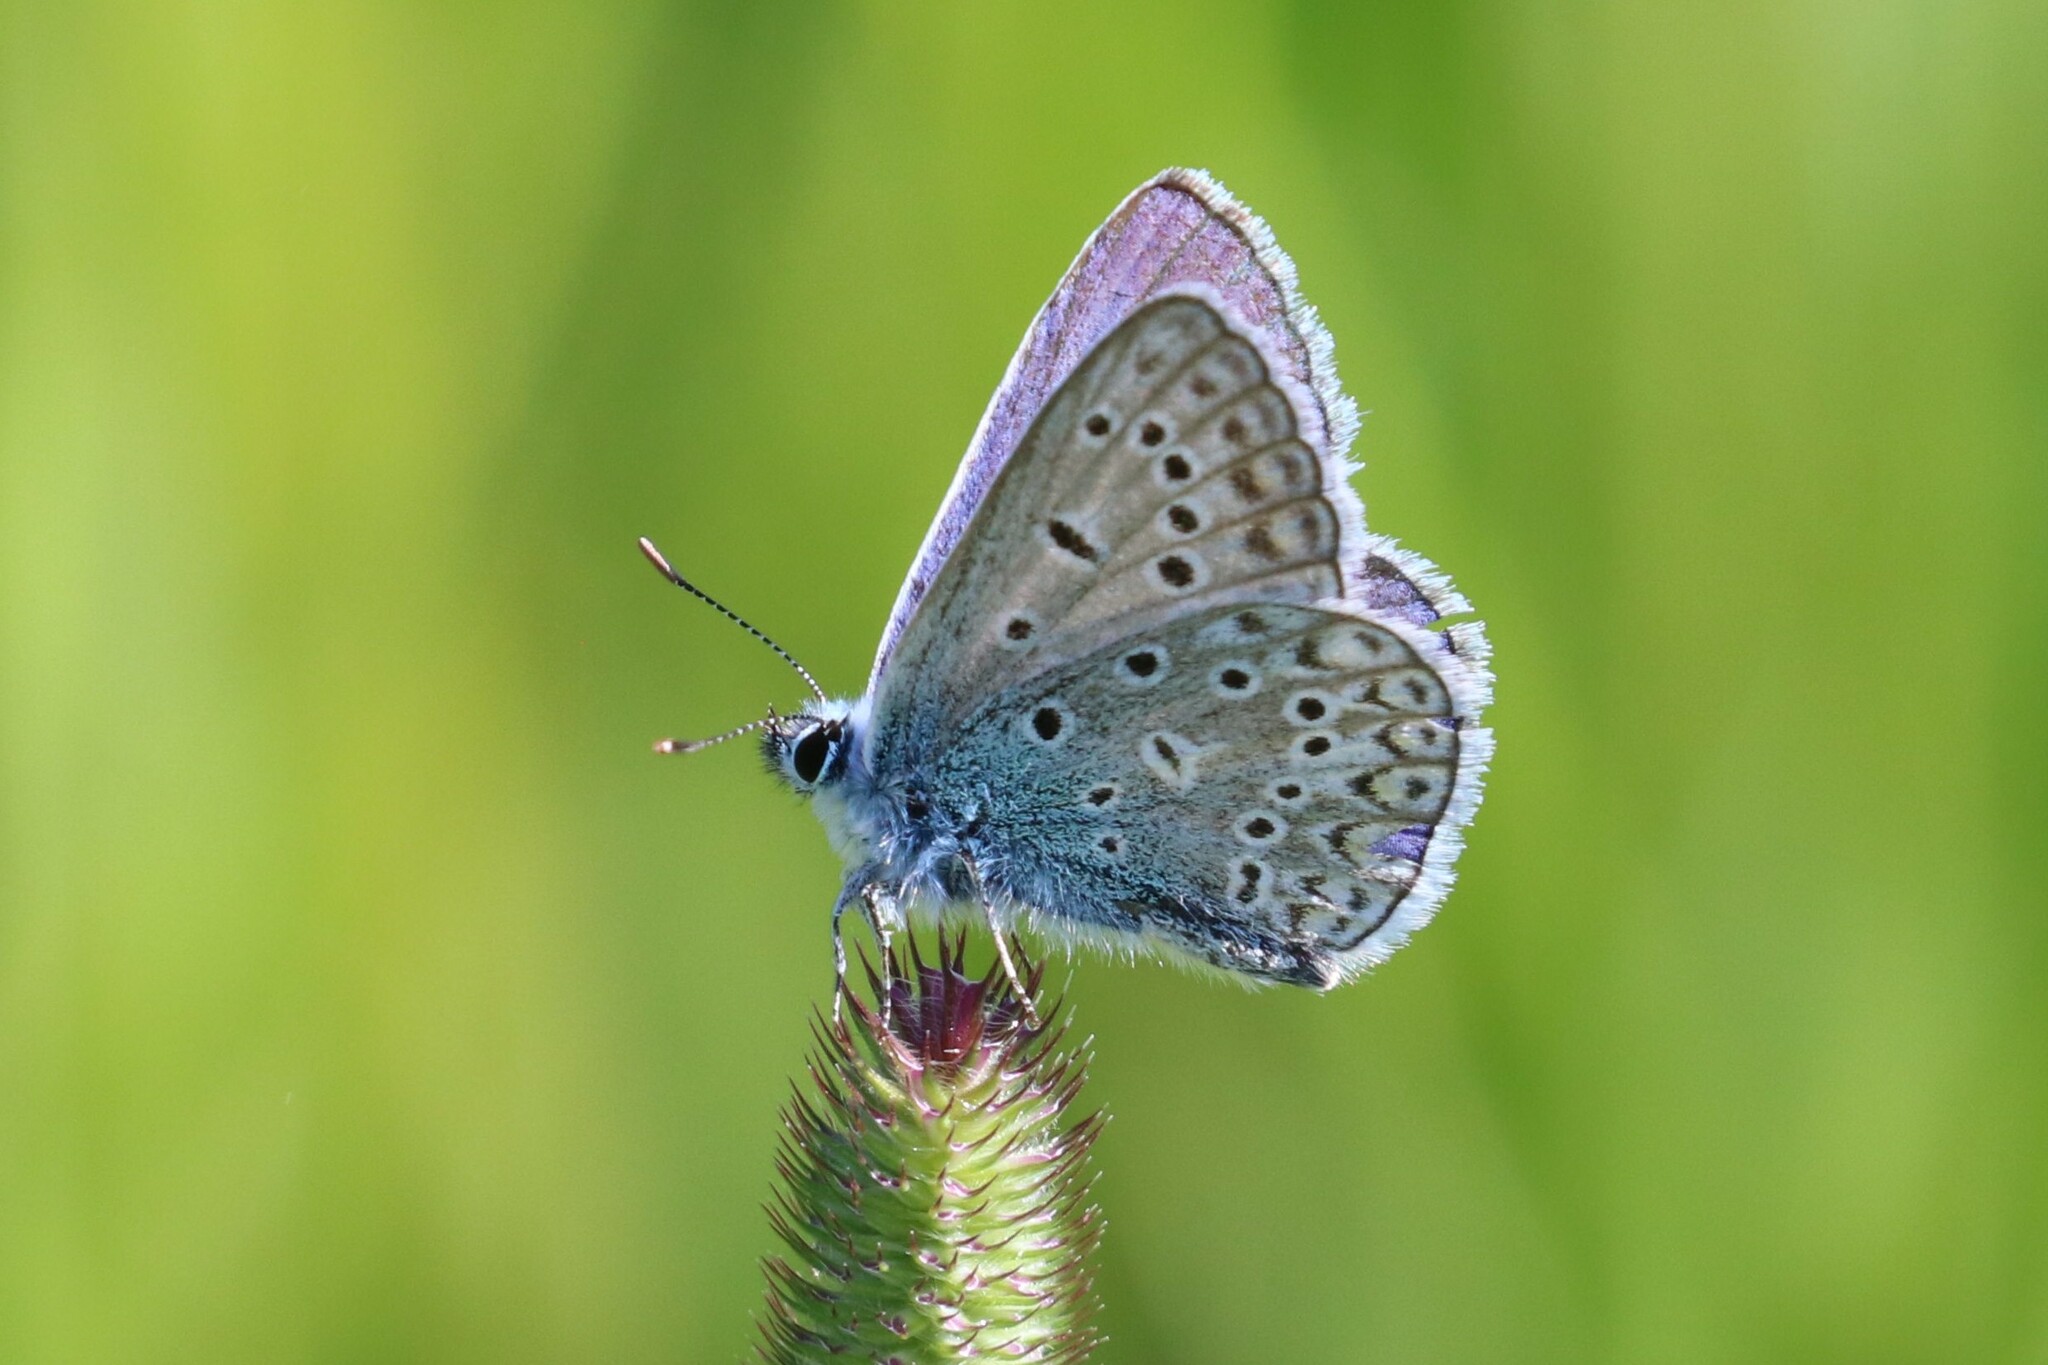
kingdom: Animalia
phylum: Arthropoda
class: Insecta
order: Lepidoptera
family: Lycaenidae
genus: Polyommatus
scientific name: Polyommatus icarus
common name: Common blue
